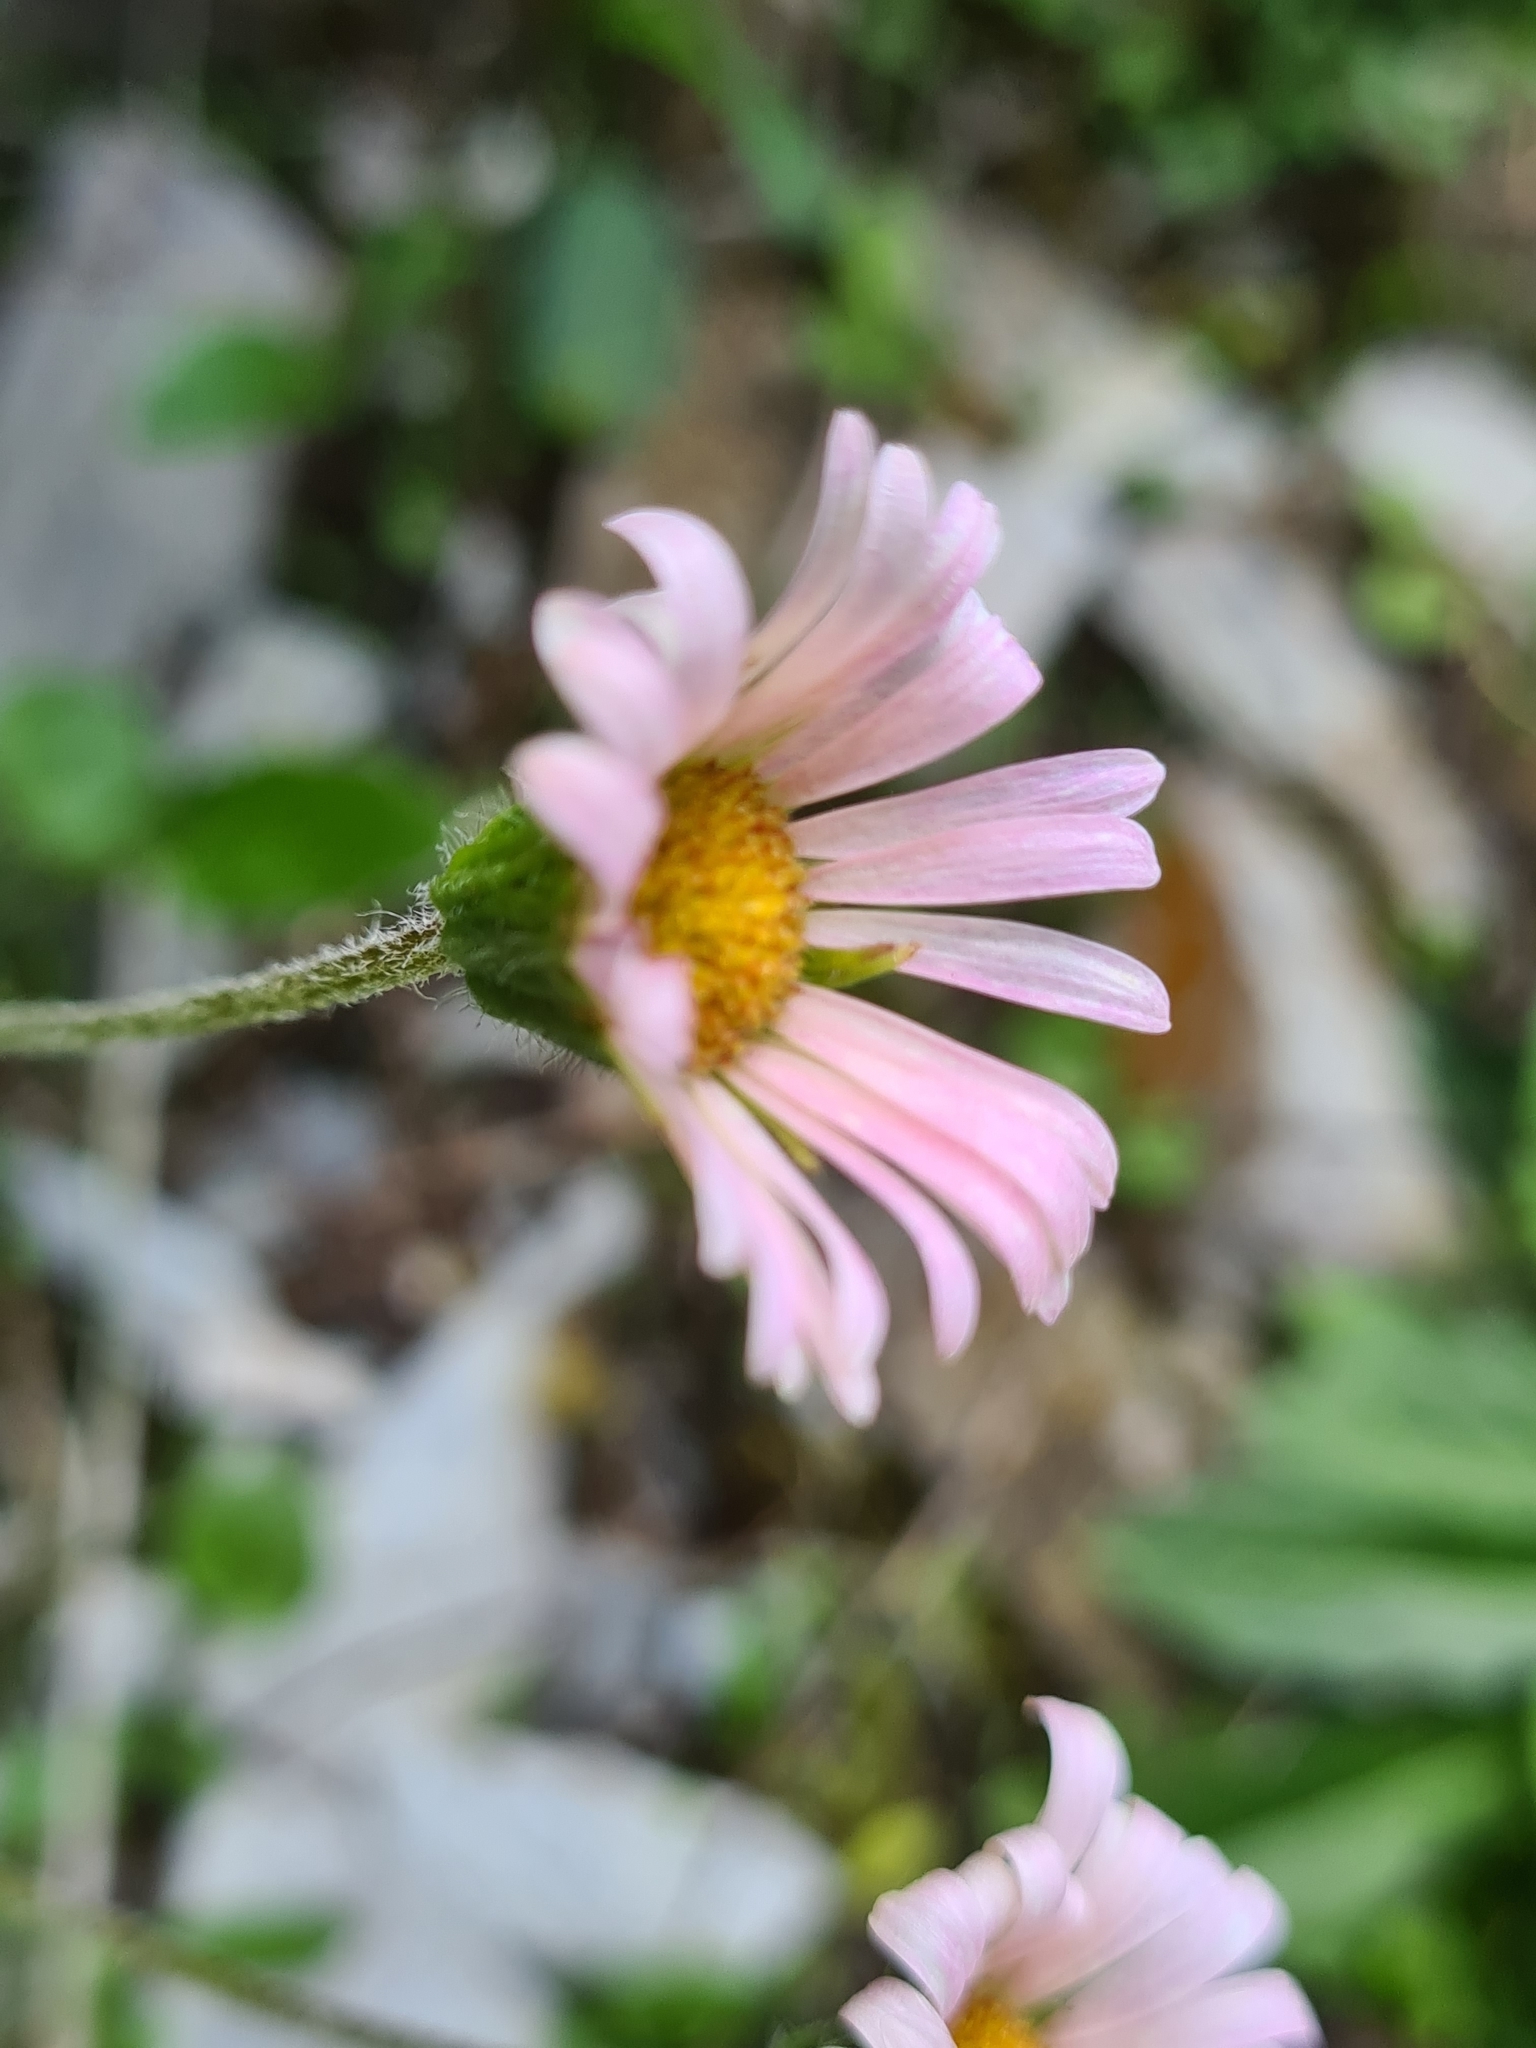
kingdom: Plantae
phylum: Tracheophyta
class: Magnoliopsida
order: Asterales
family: Asteraceae
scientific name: Asteraceae
